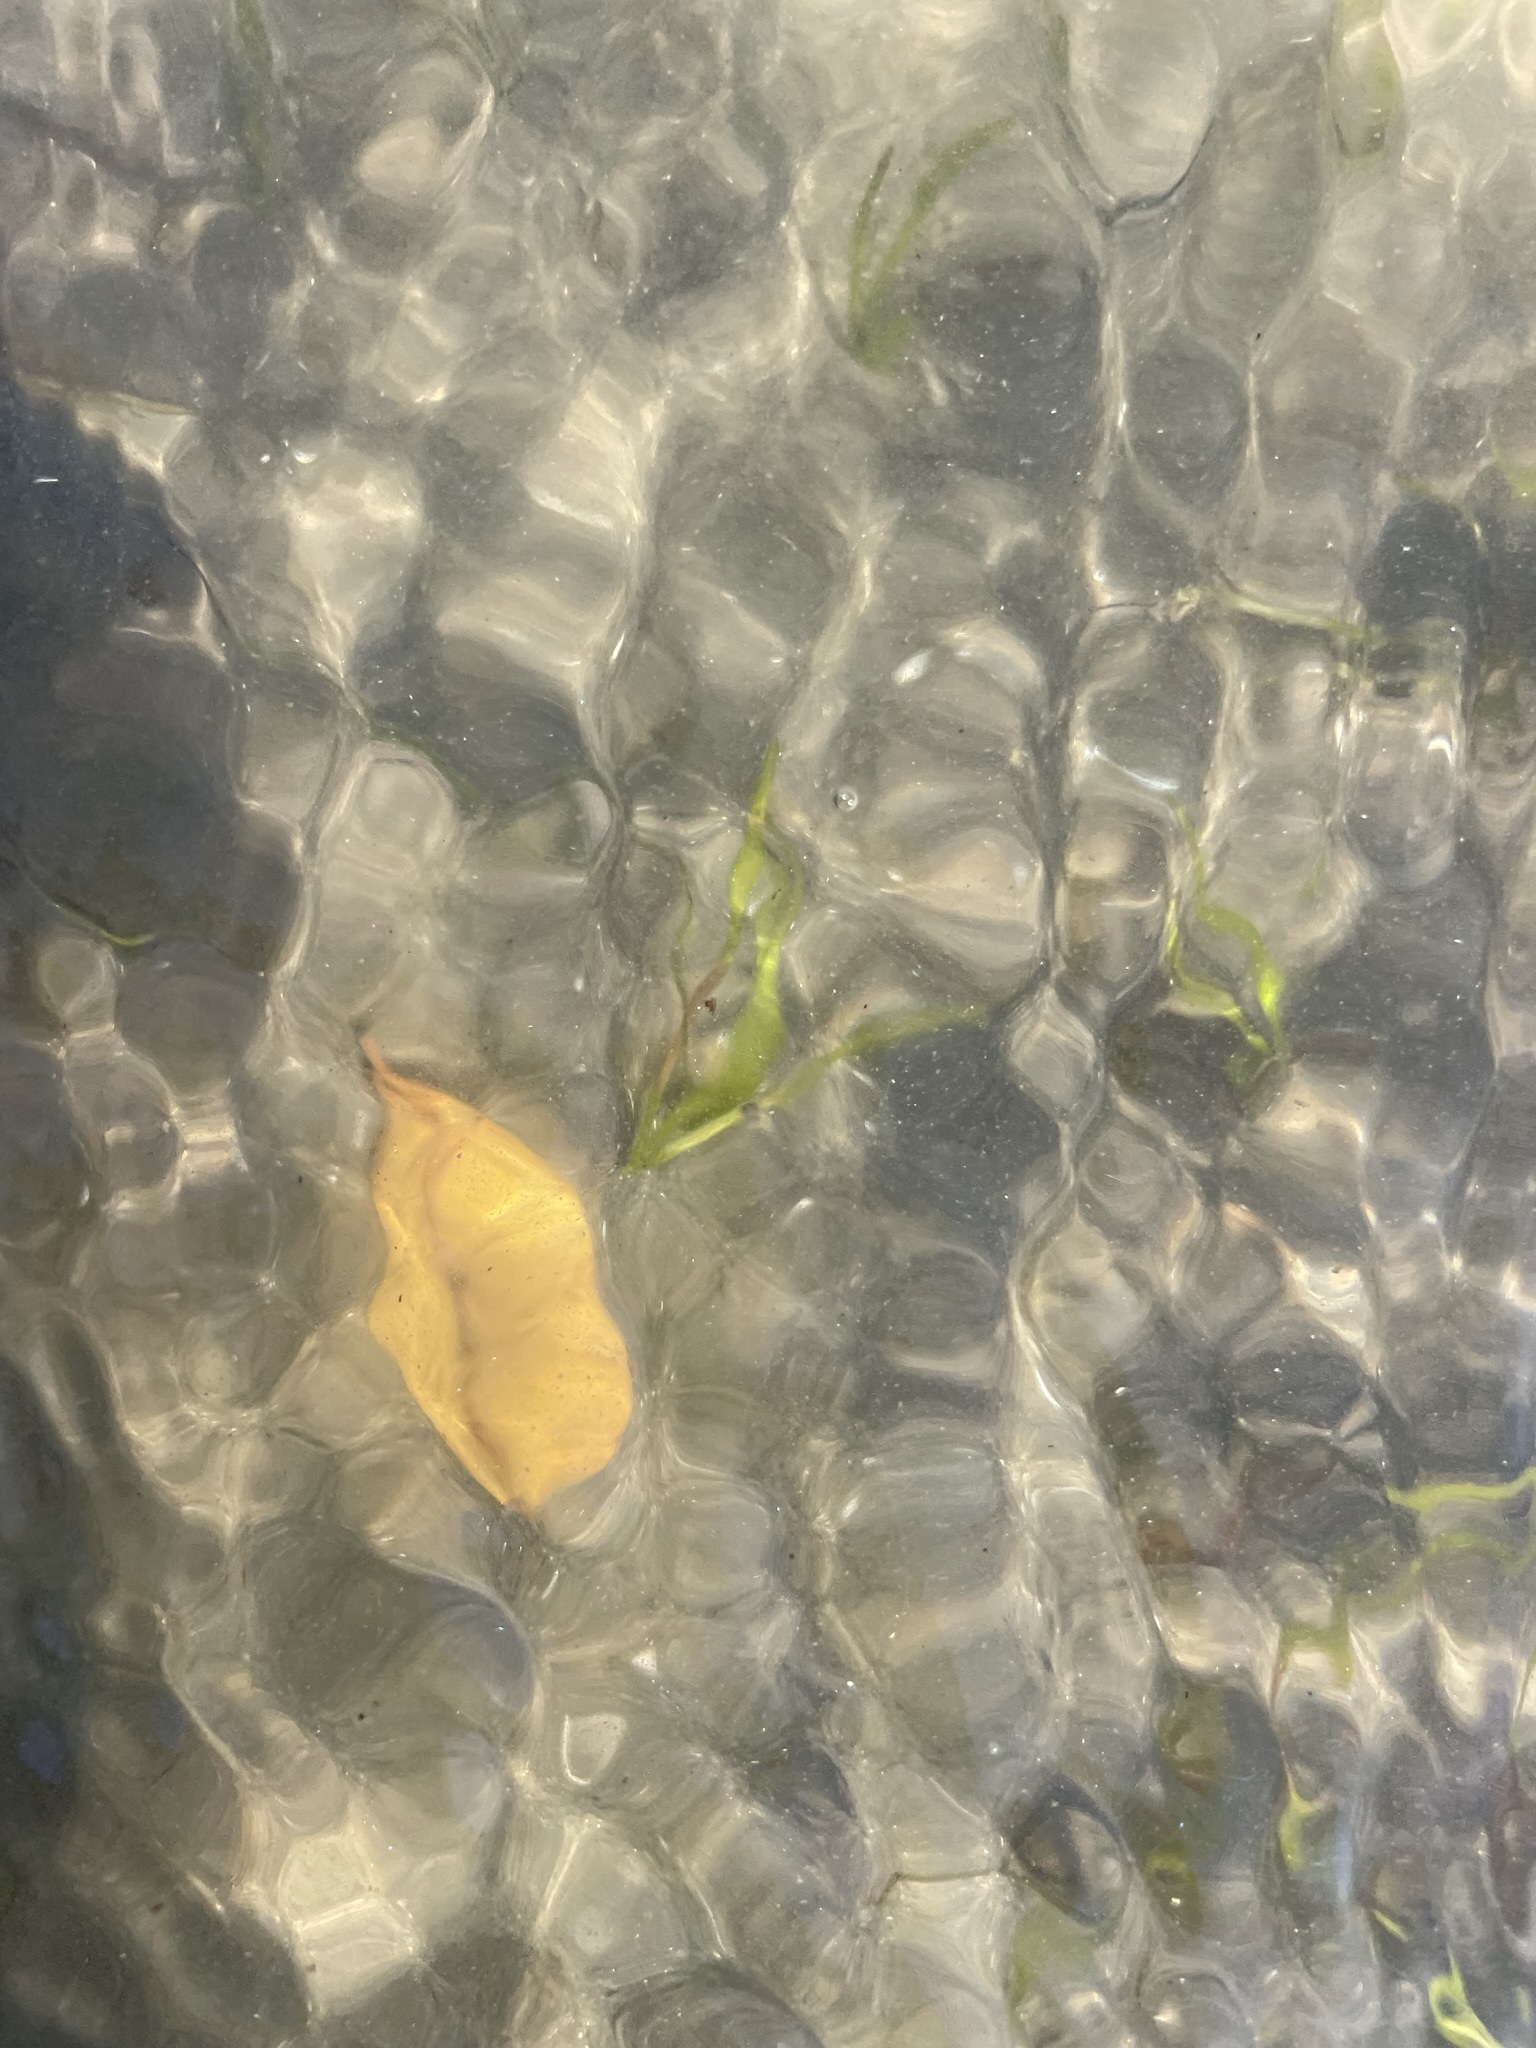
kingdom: Plantae
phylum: Tracheophyta
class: Liliopsida
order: Alismatales
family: Zosteraceae
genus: Zostera
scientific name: Zostera marina
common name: Eelgrass
